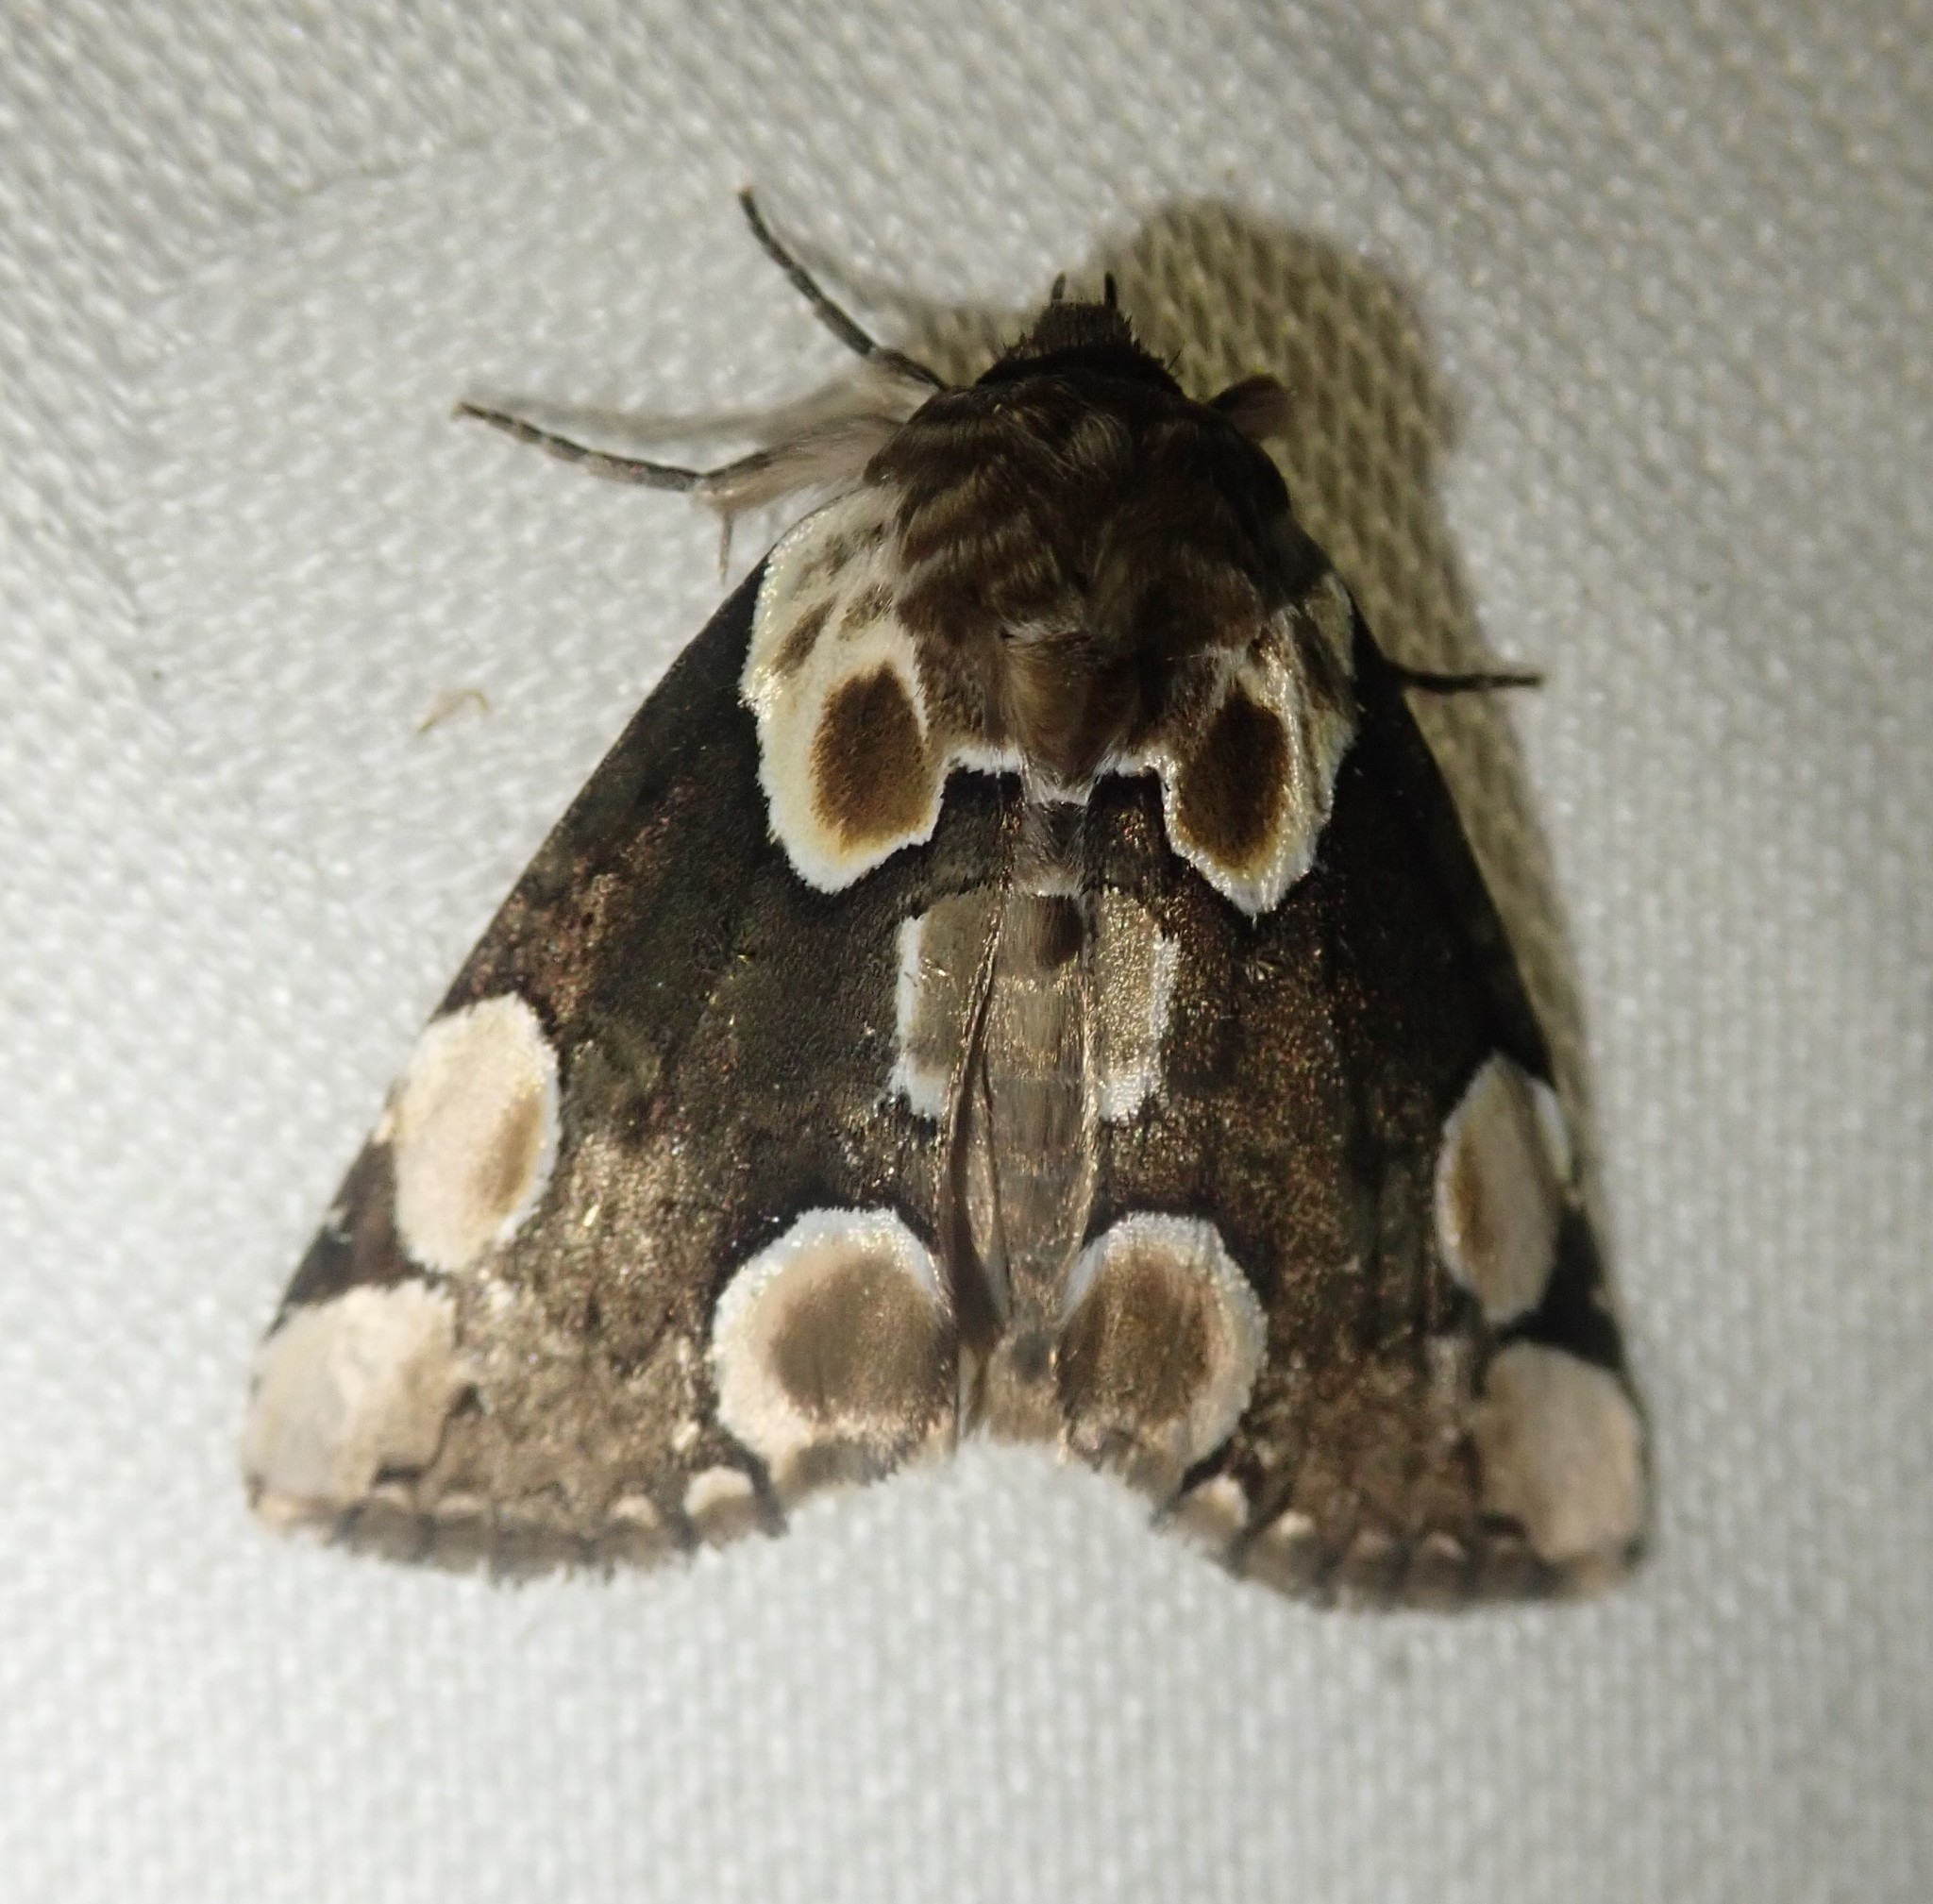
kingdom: Animalia
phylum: Arthropoda
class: Insecta
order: Lepidoptera
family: Drepanidae
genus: Thyatira
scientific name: Thyatira batis
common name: Peach blossom
